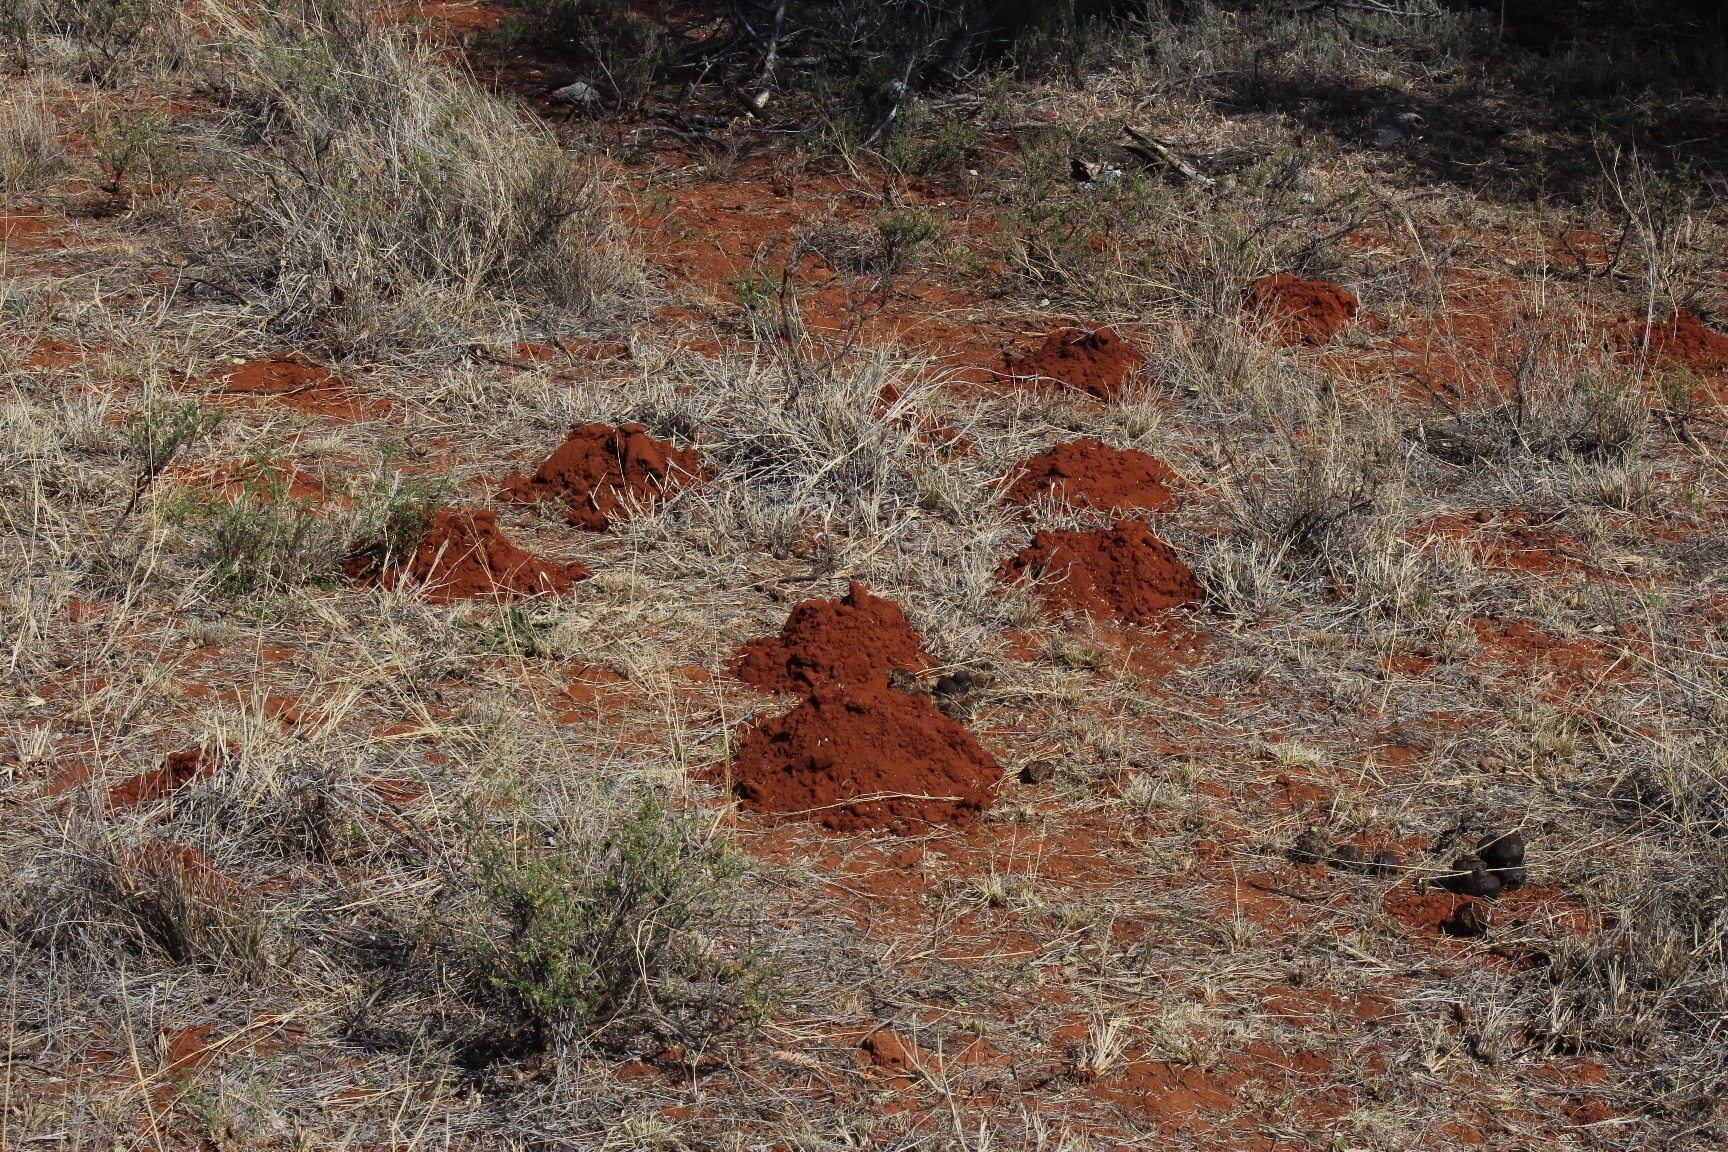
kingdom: Animalia
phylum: Chordata
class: Mammalia
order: Rodentia
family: Bathyergidae
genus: Cryptomys
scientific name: Cryptomys hottentotus
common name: Southern african mole-rat
